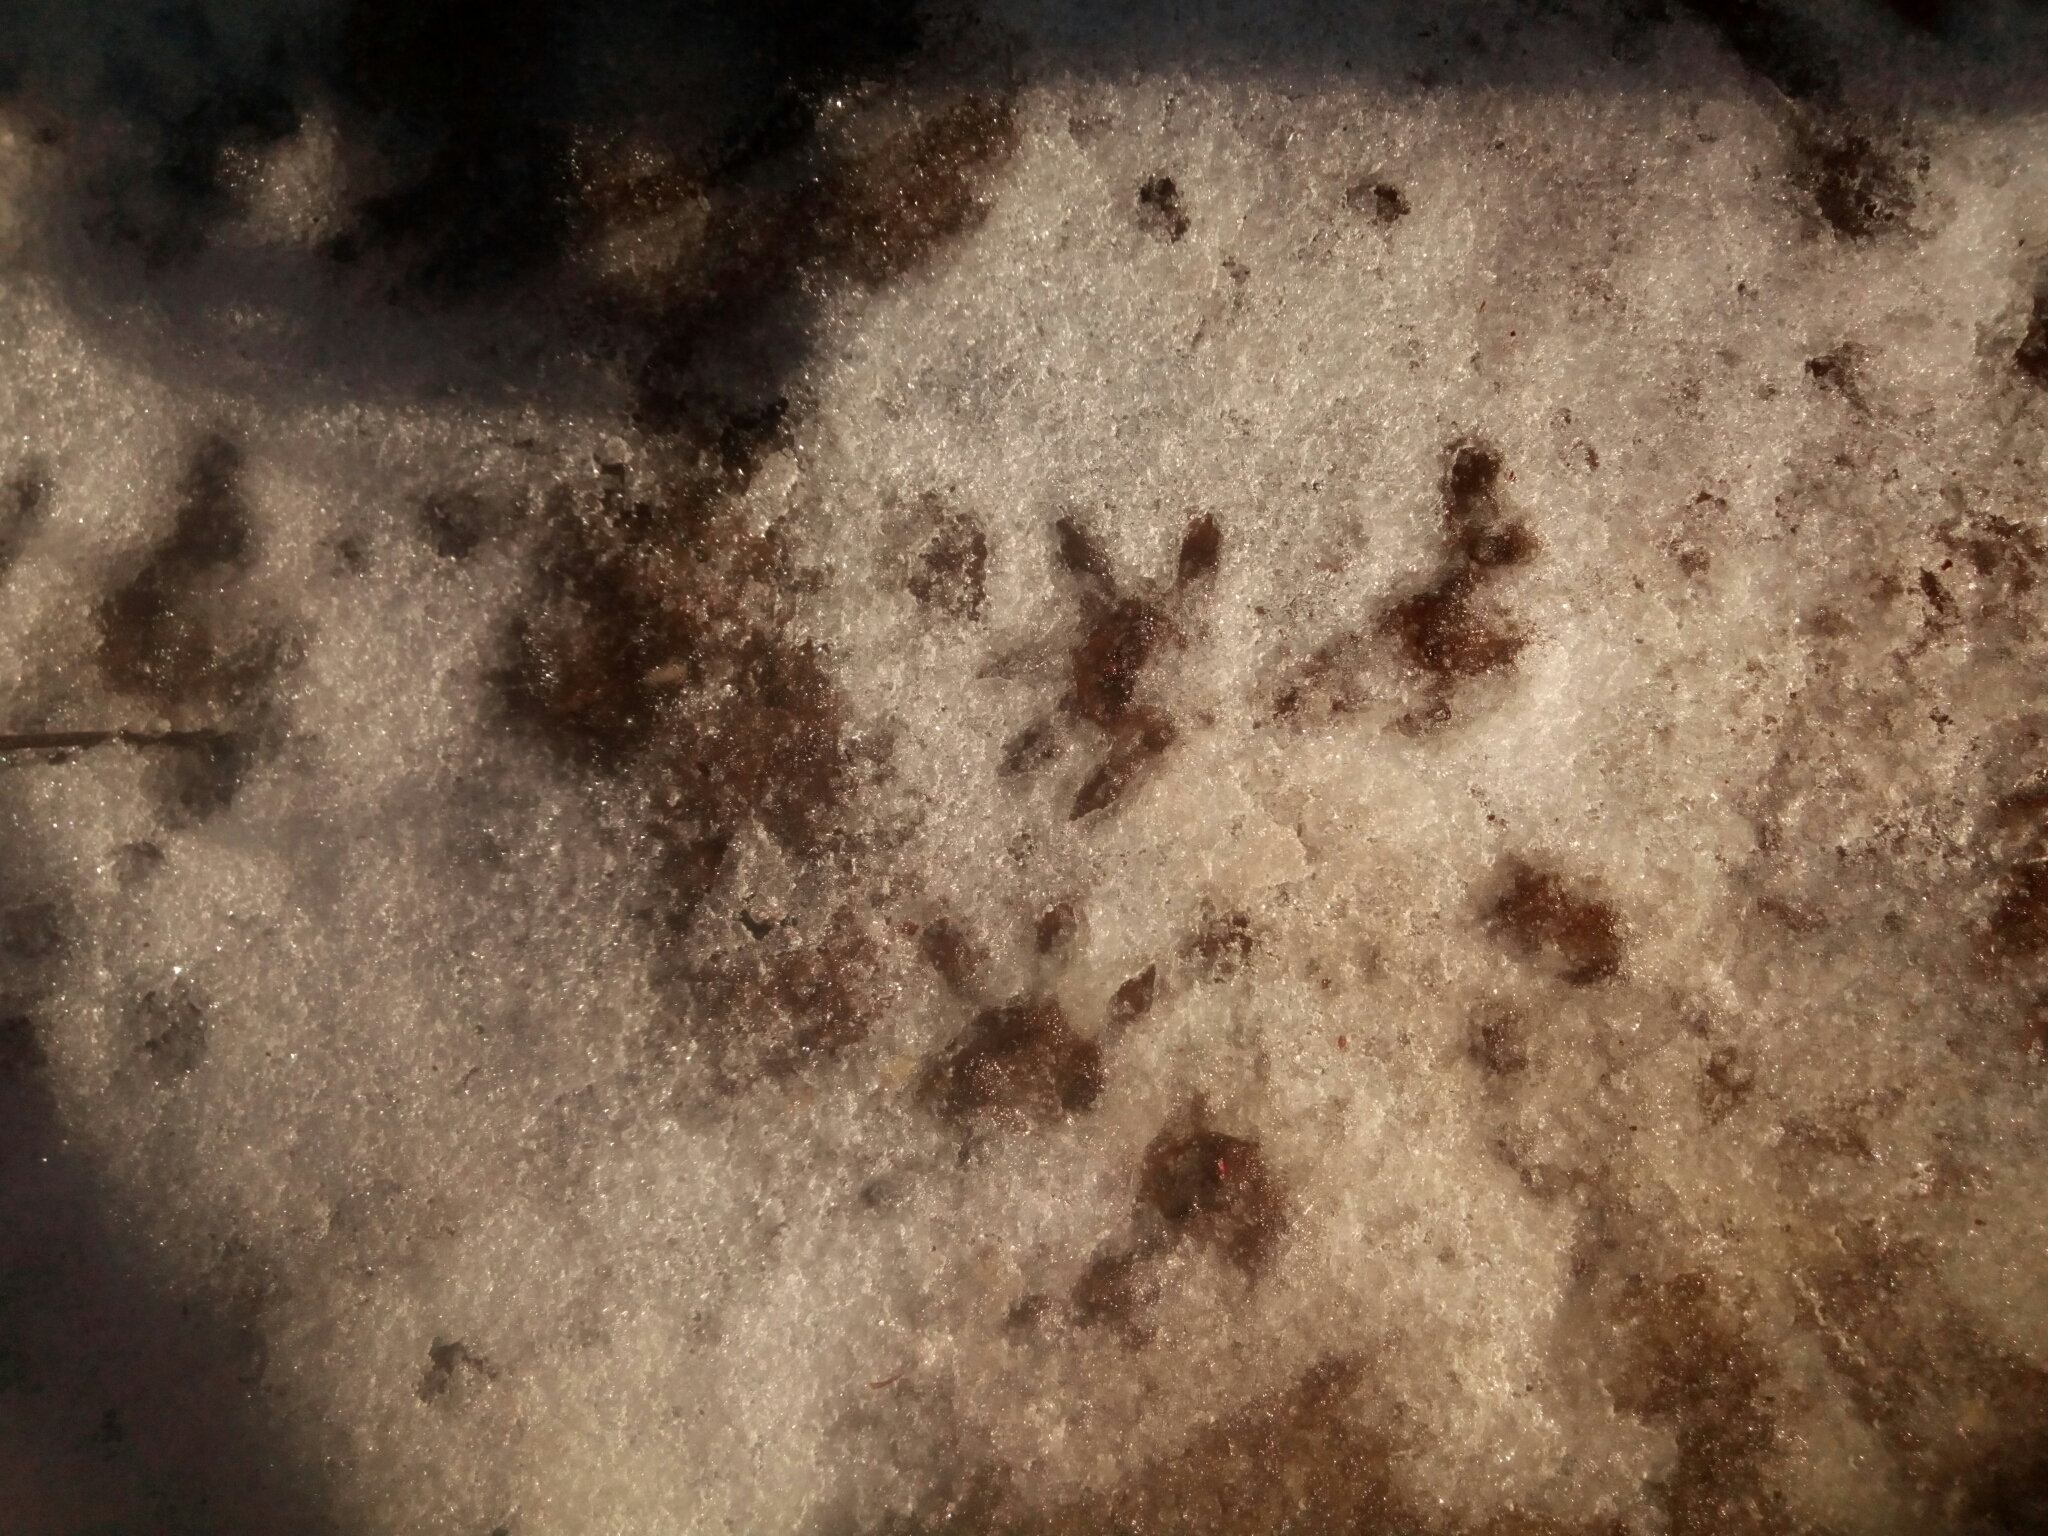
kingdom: Animalia
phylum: Chordata
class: Mammalia
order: Didelphimorphia
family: Didelphidae
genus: Didelphis
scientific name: Didelphis virginiana
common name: Virginia opossum
